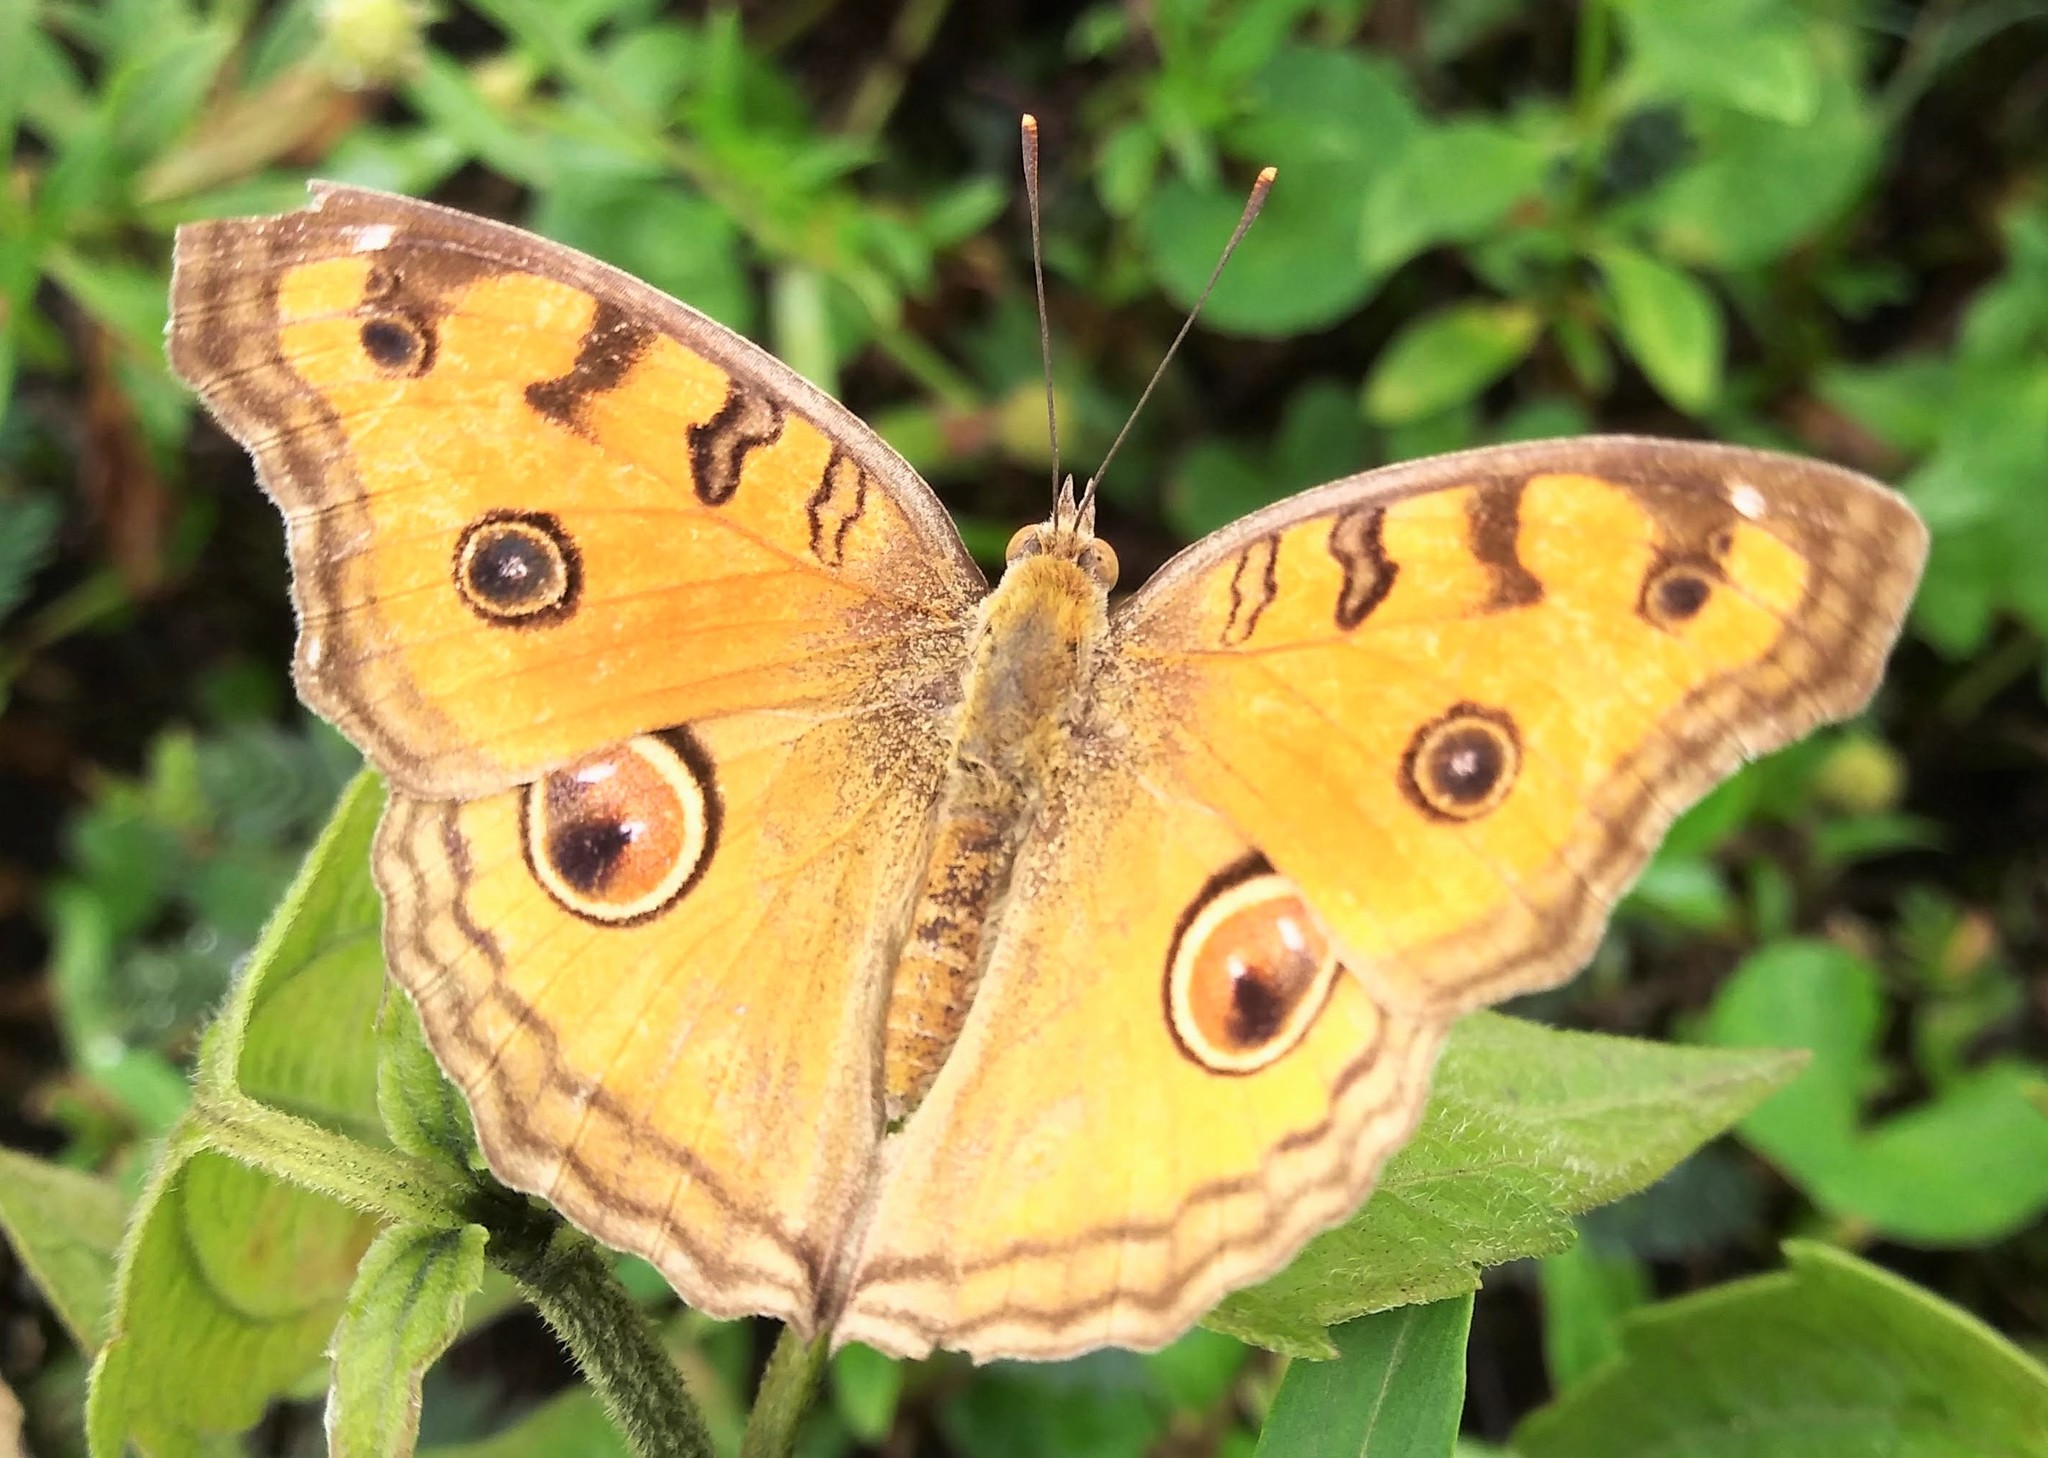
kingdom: Animalia
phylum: Arthropoda
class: Insecta
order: Lepidoptera
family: Nymphalidae
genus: Junonia
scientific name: Junonia almana
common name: Peacock pansy
